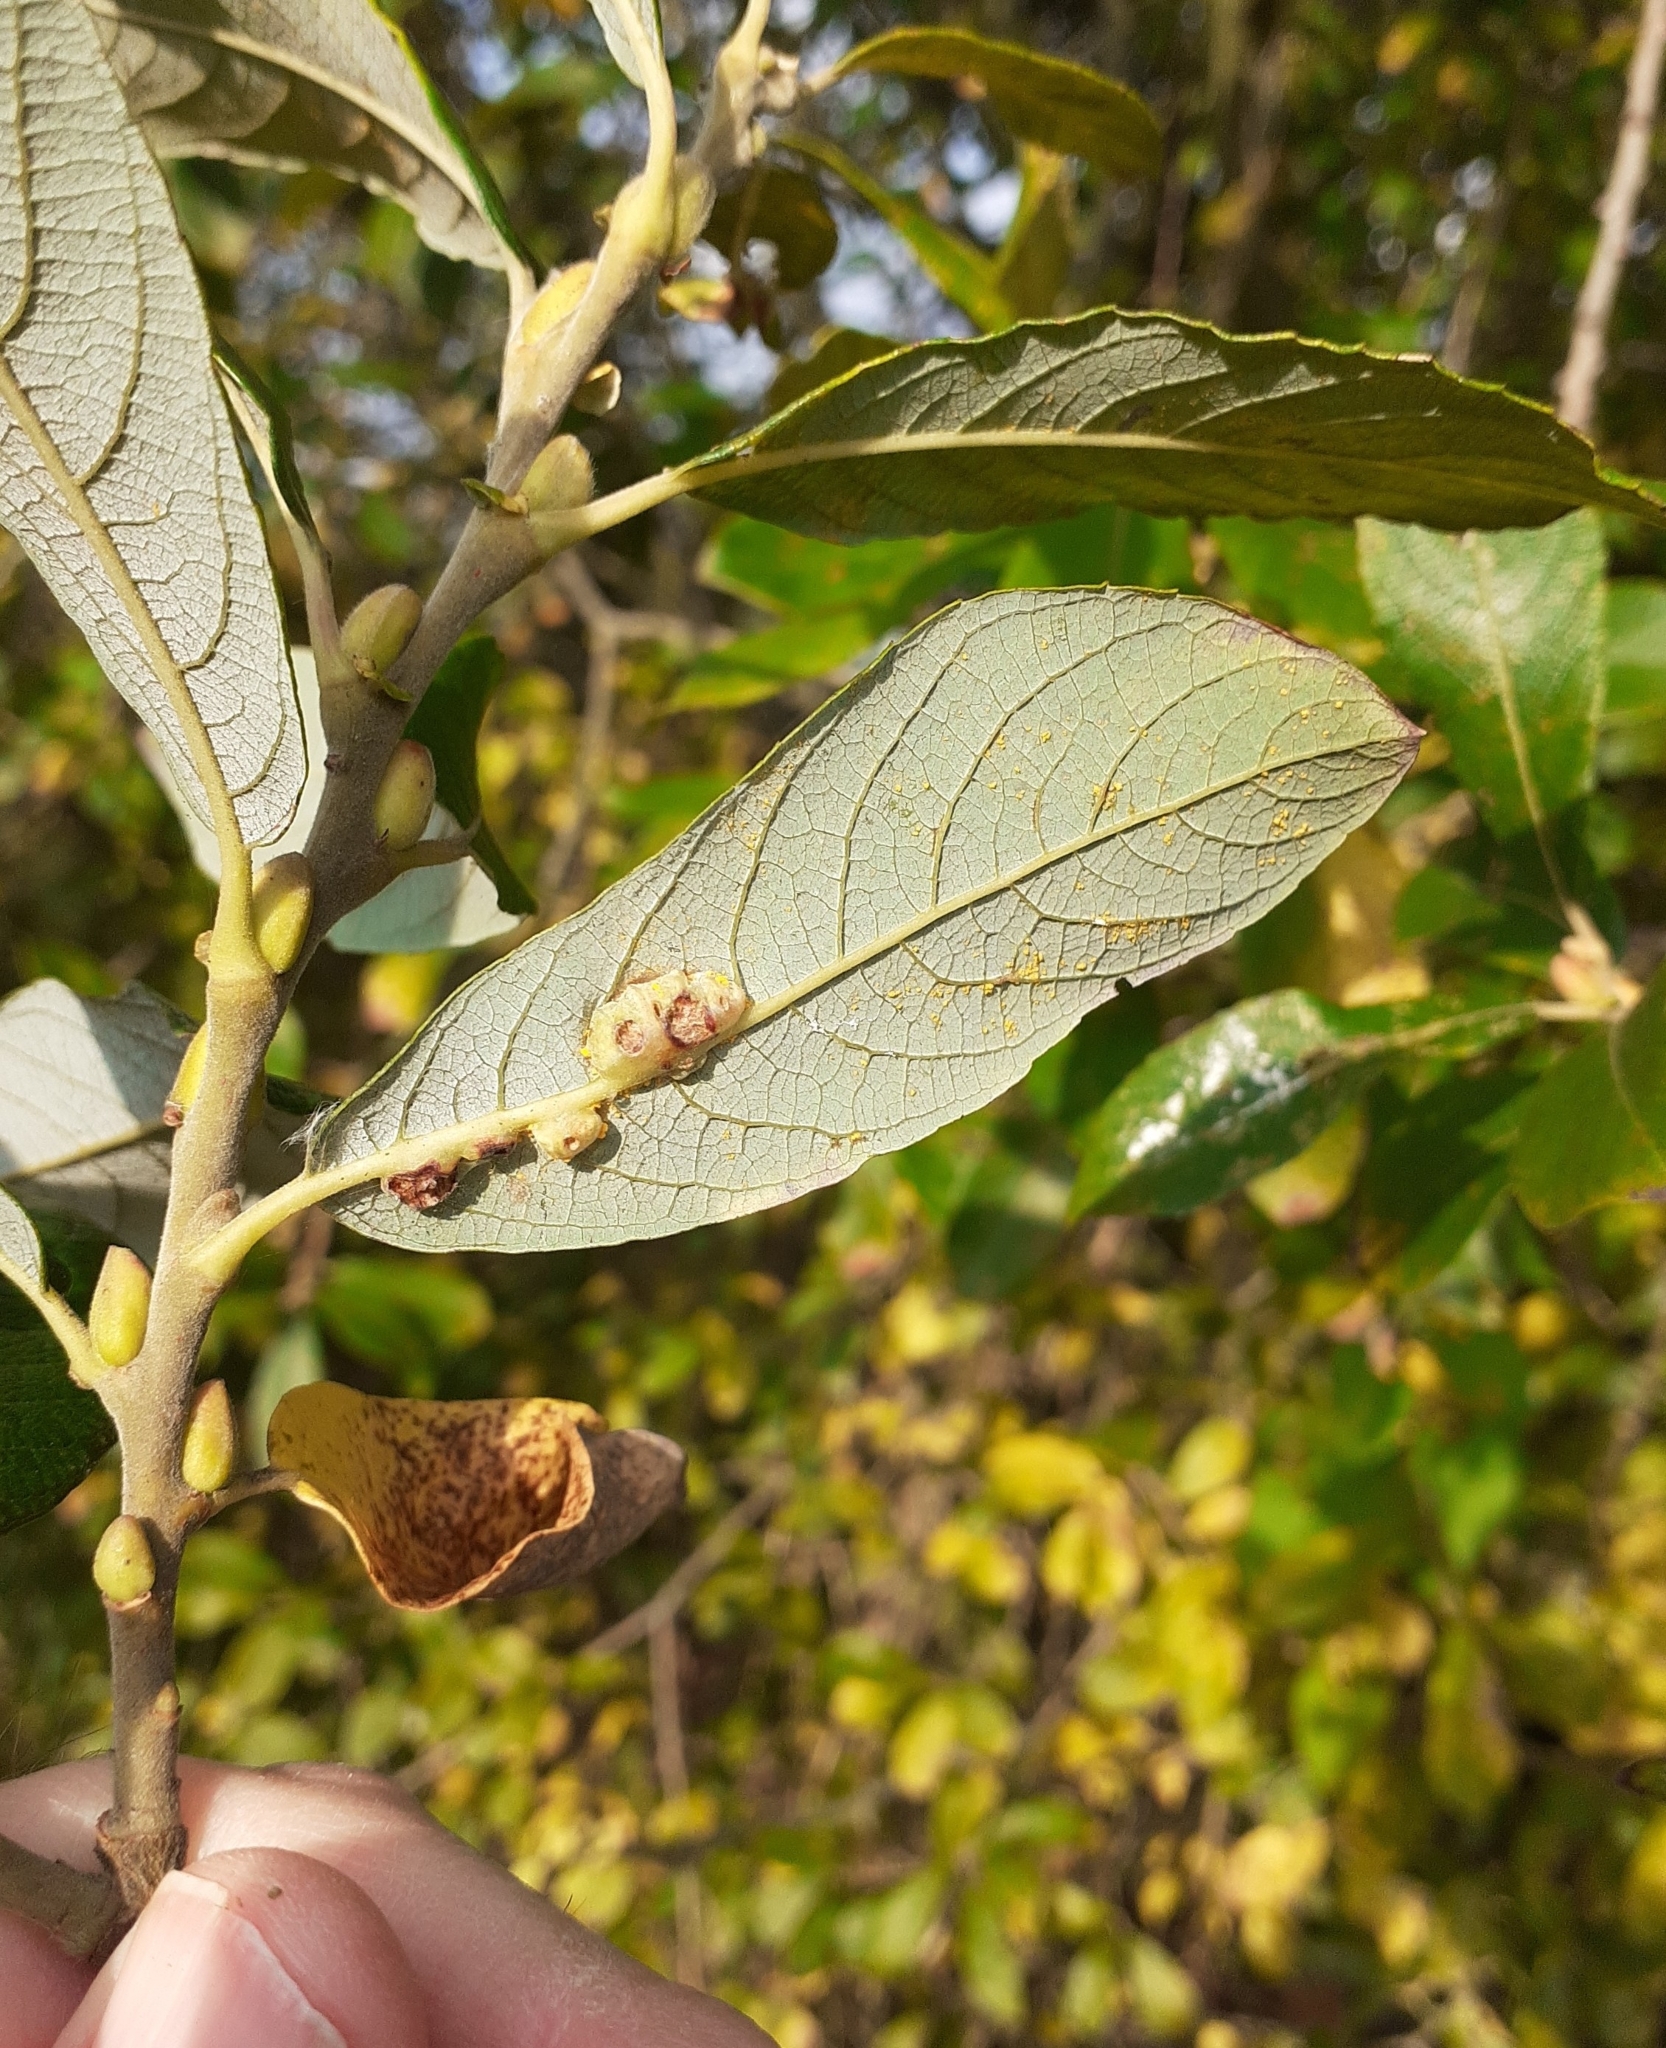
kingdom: Animalia
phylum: Arthropoda
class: Insecta
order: Diptera
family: Cecidomyiidae
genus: Iteomyia
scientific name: Iteomyia major
